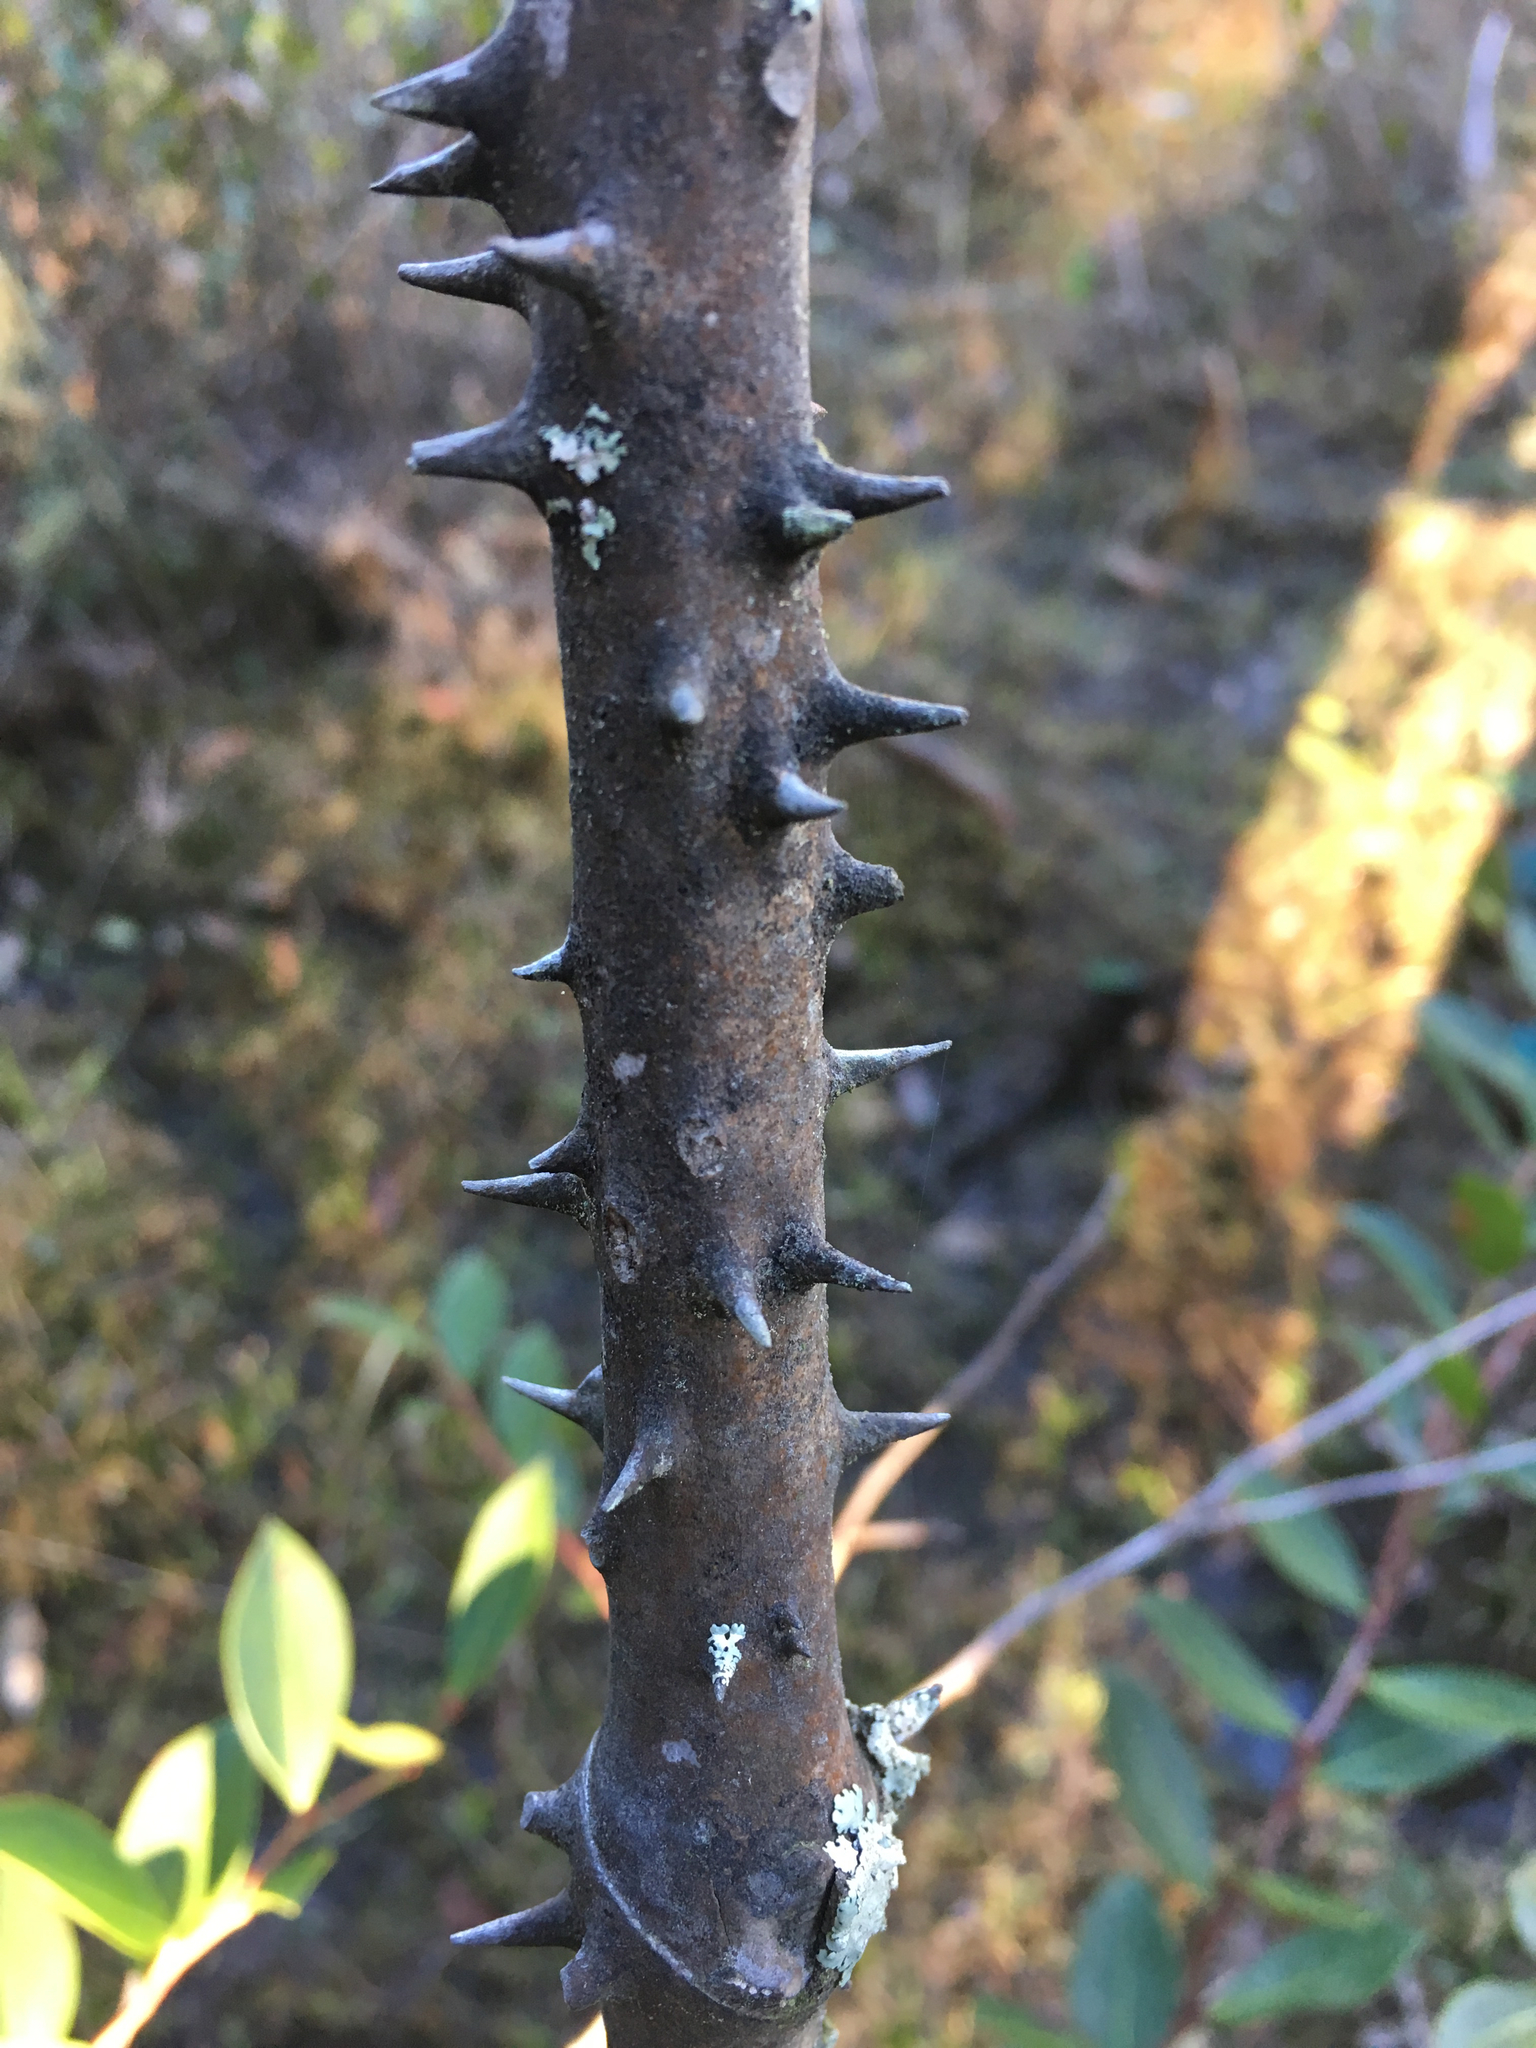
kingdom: Plantae
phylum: Tracheophyta
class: Liliopsida
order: Liliales
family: Smilacaceae
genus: Smilax
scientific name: Smilax laurifolia
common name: Bamboovine
